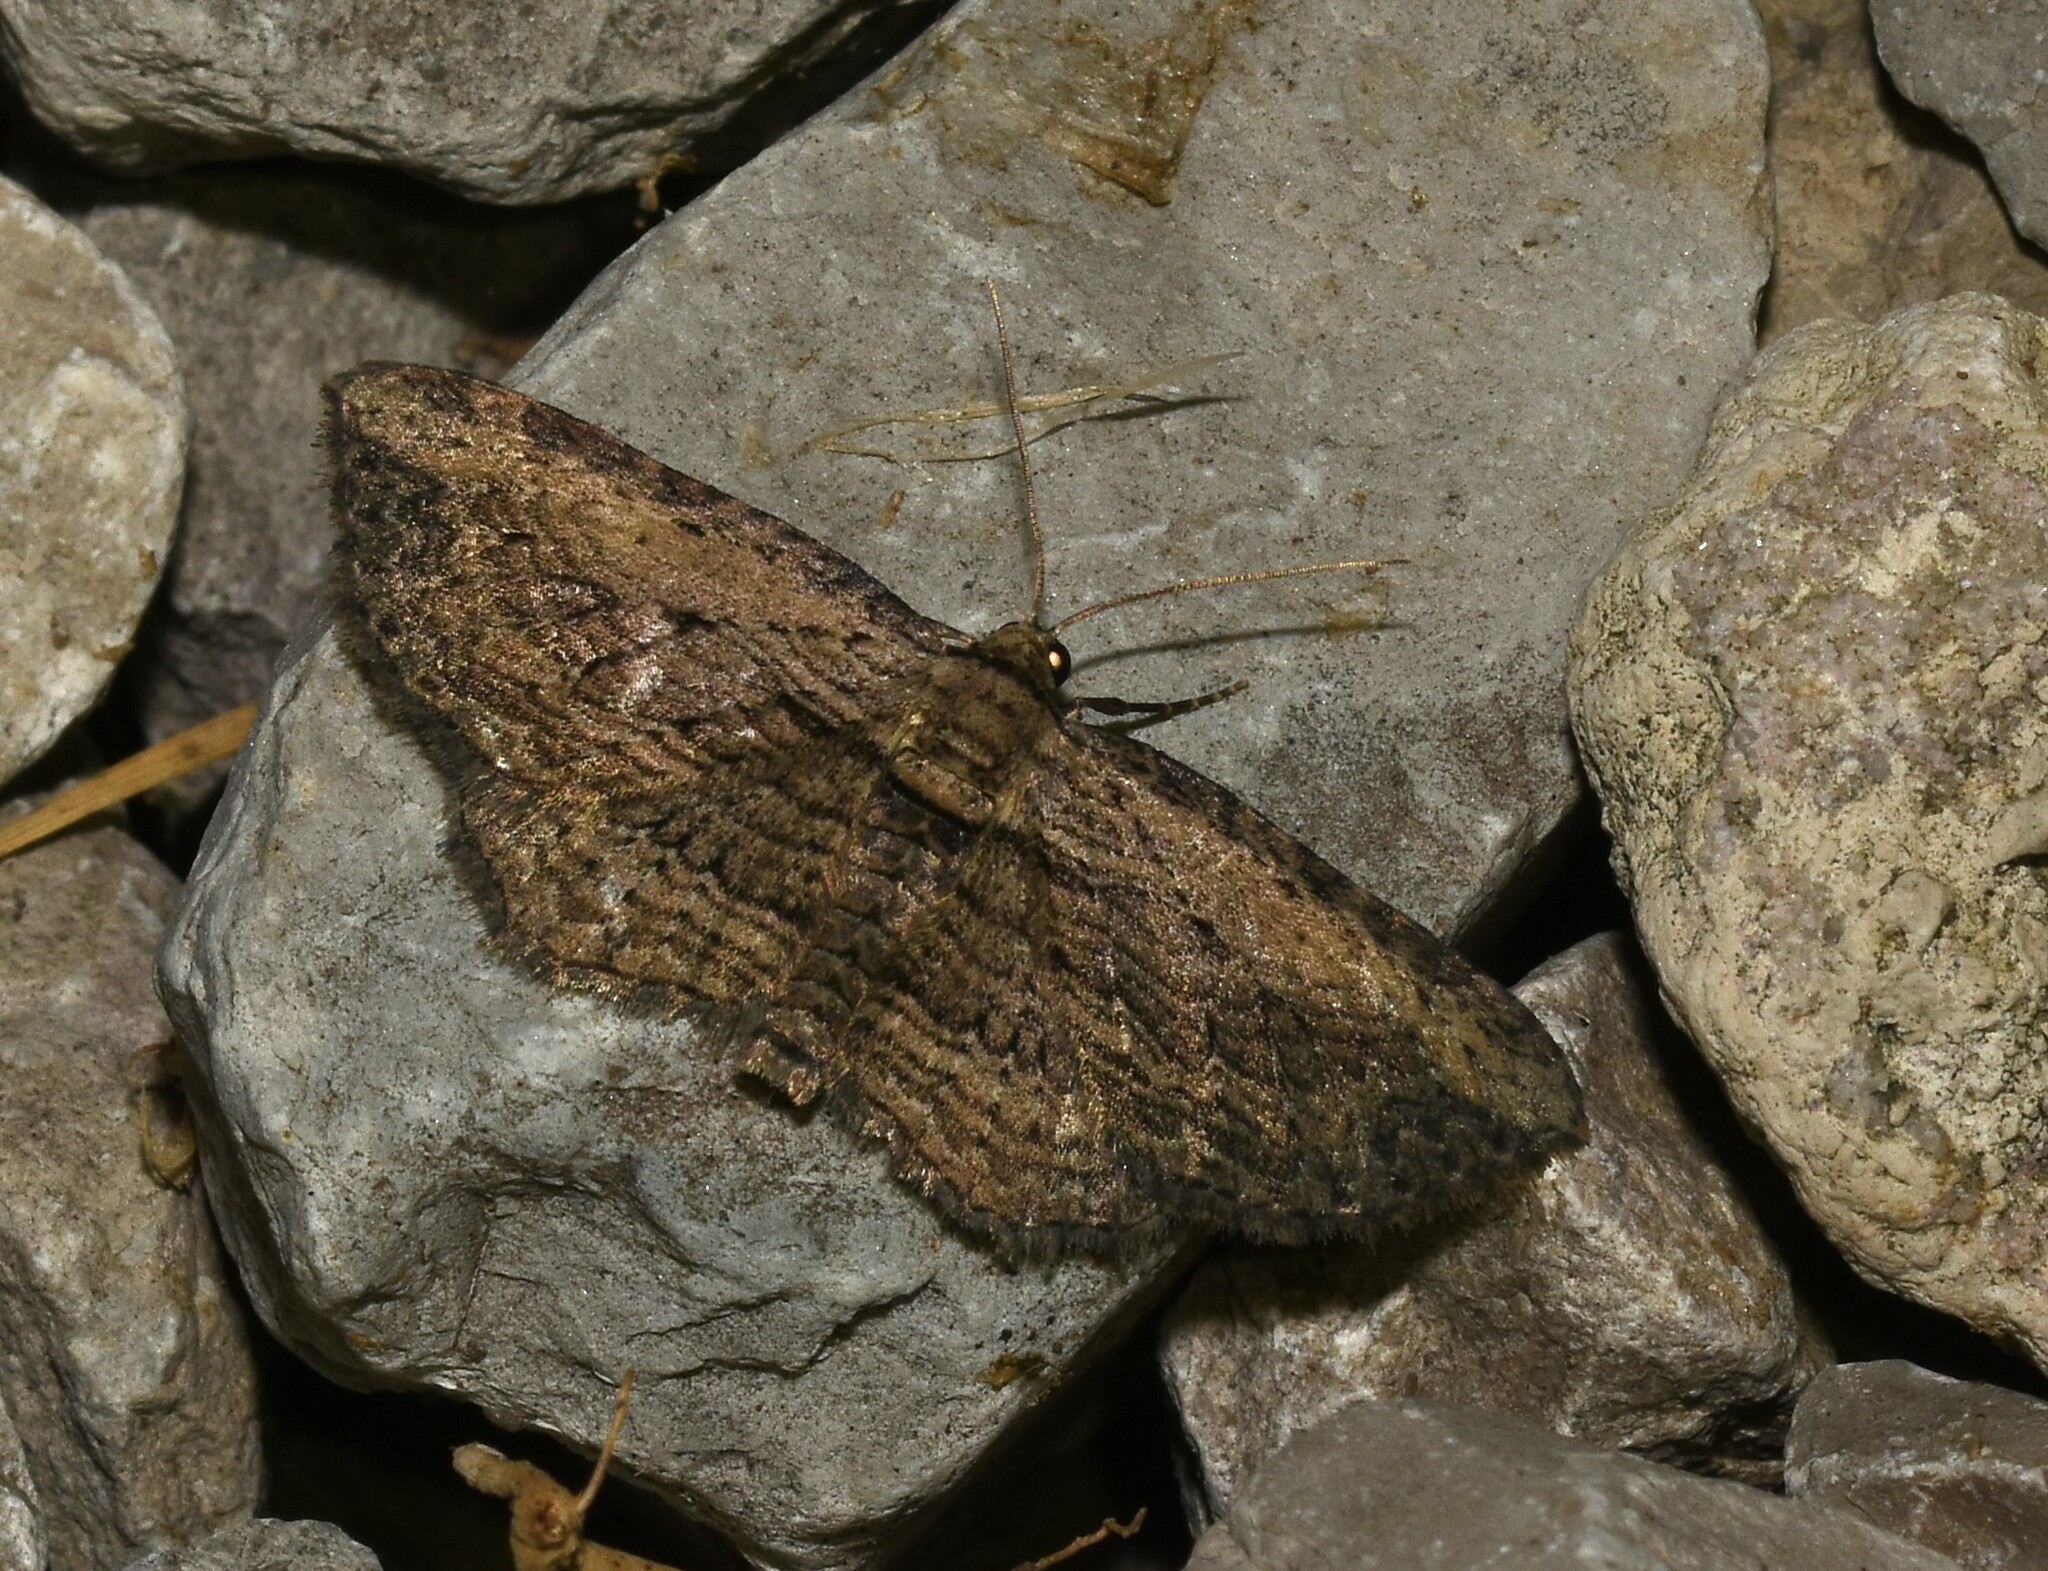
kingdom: Animalia
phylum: Arthropoda
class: Insecta
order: Lepidoptera
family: Geometridae
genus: Horisme
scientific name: Horisme intestinata
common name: Brown bark carpet
